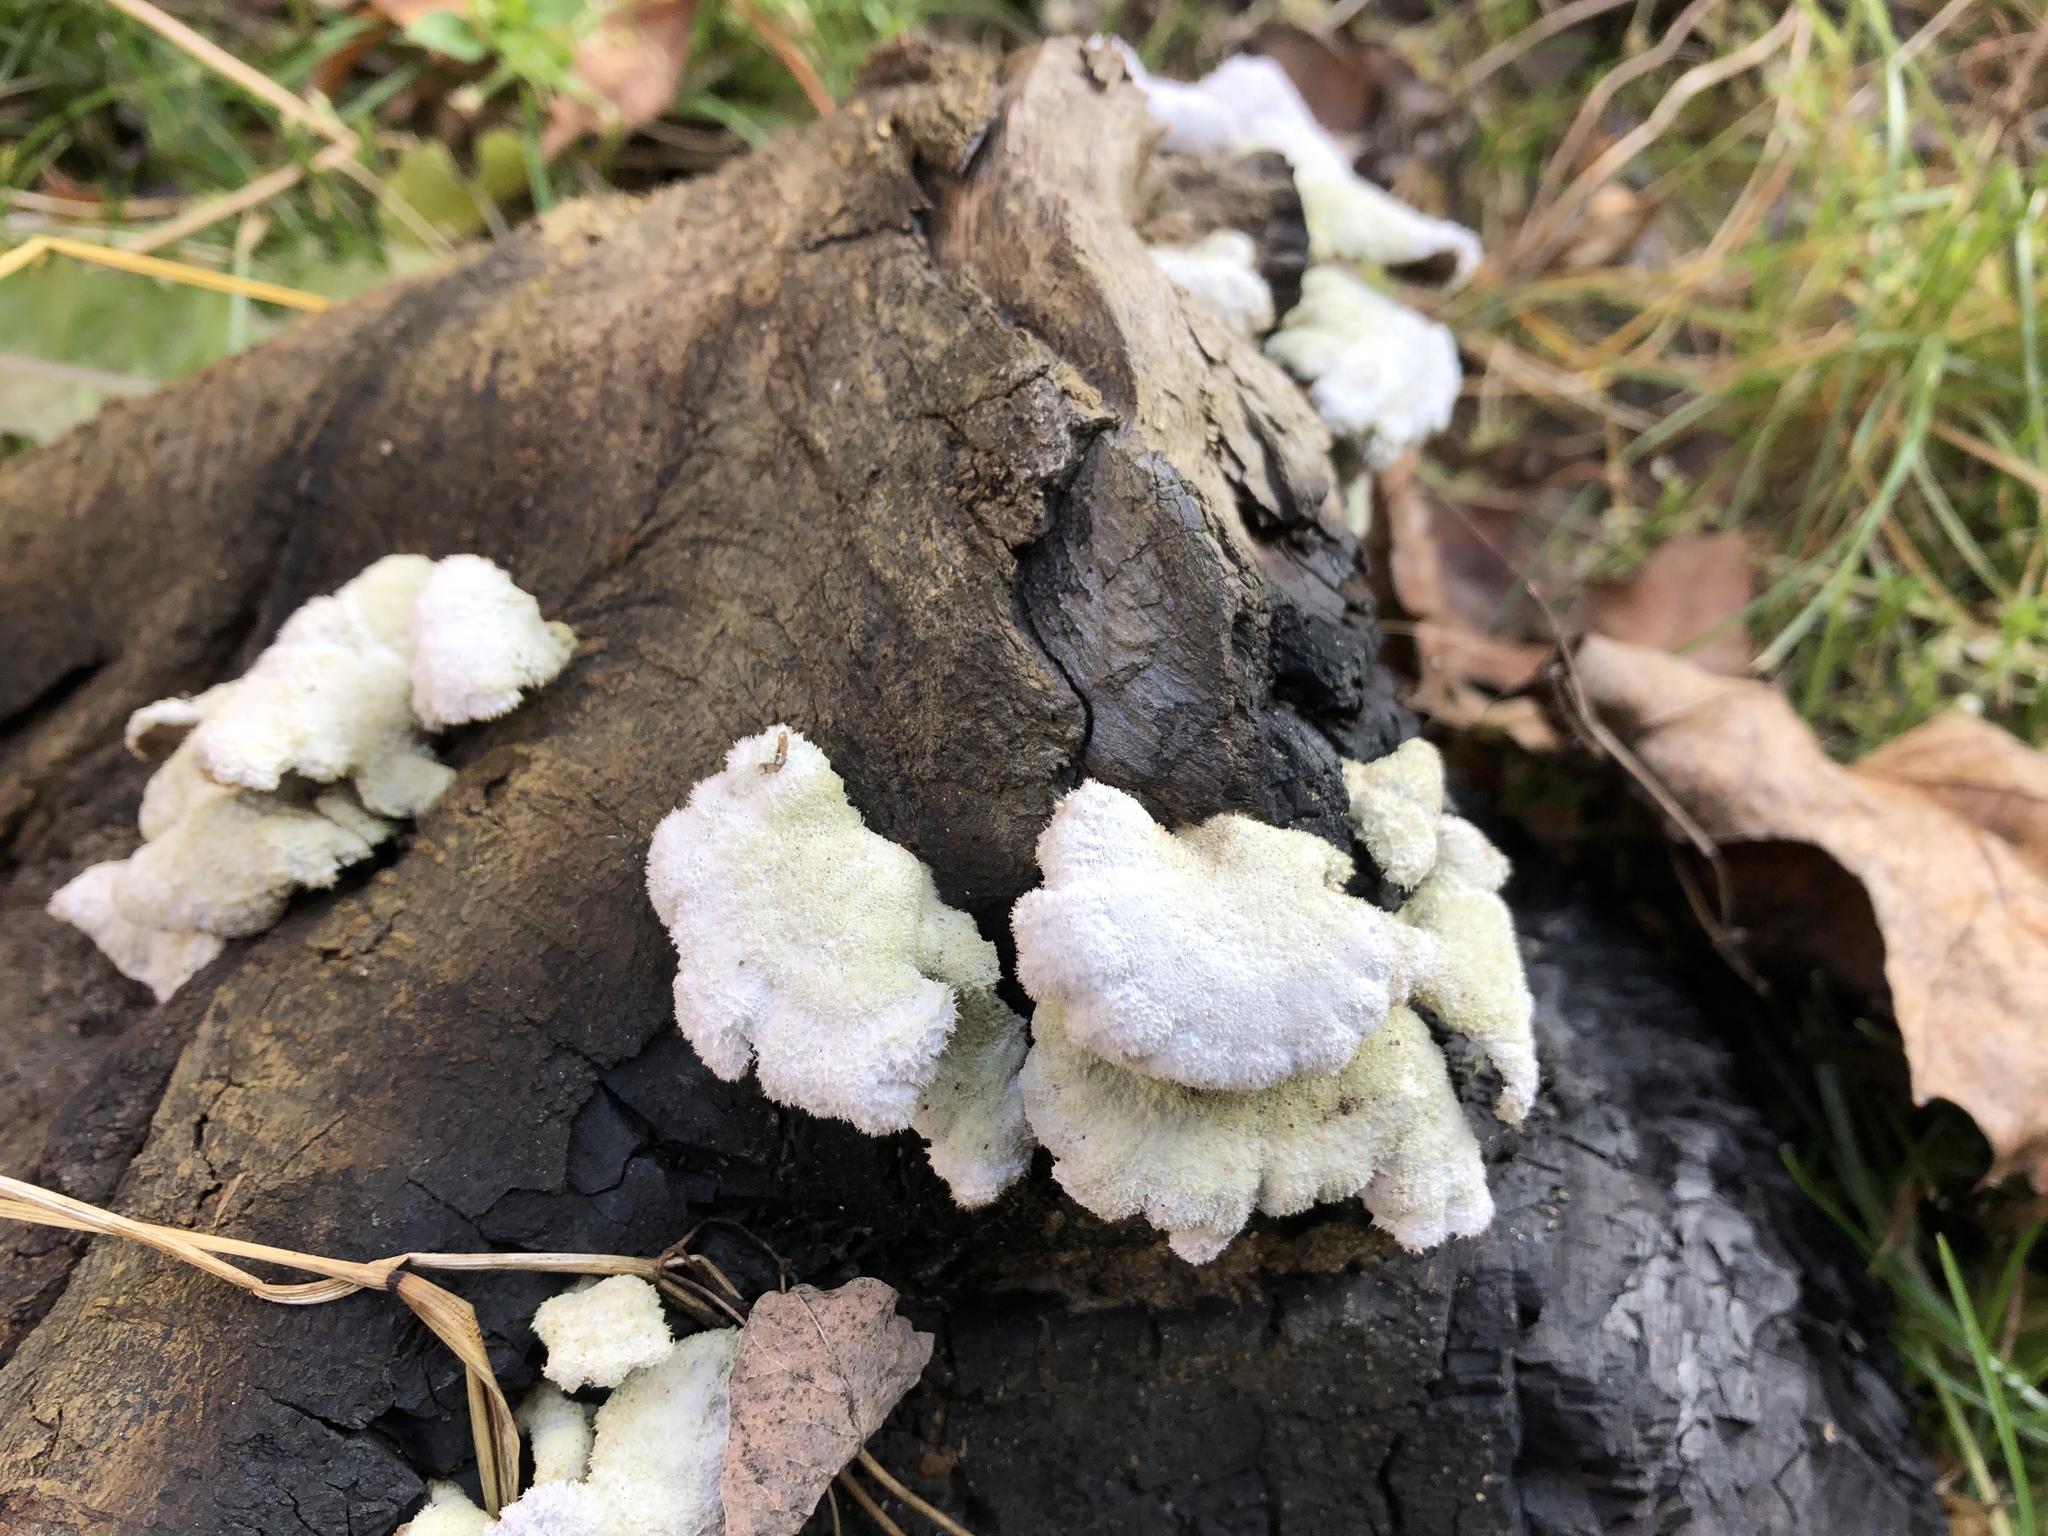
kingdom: Fungi
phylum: Basidiomycota
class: Agaricomycetes
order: Agaricales
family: Schizophyllaceae
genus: Schizophyllum
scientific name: Schizophyllum commune
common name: Common porecrust
